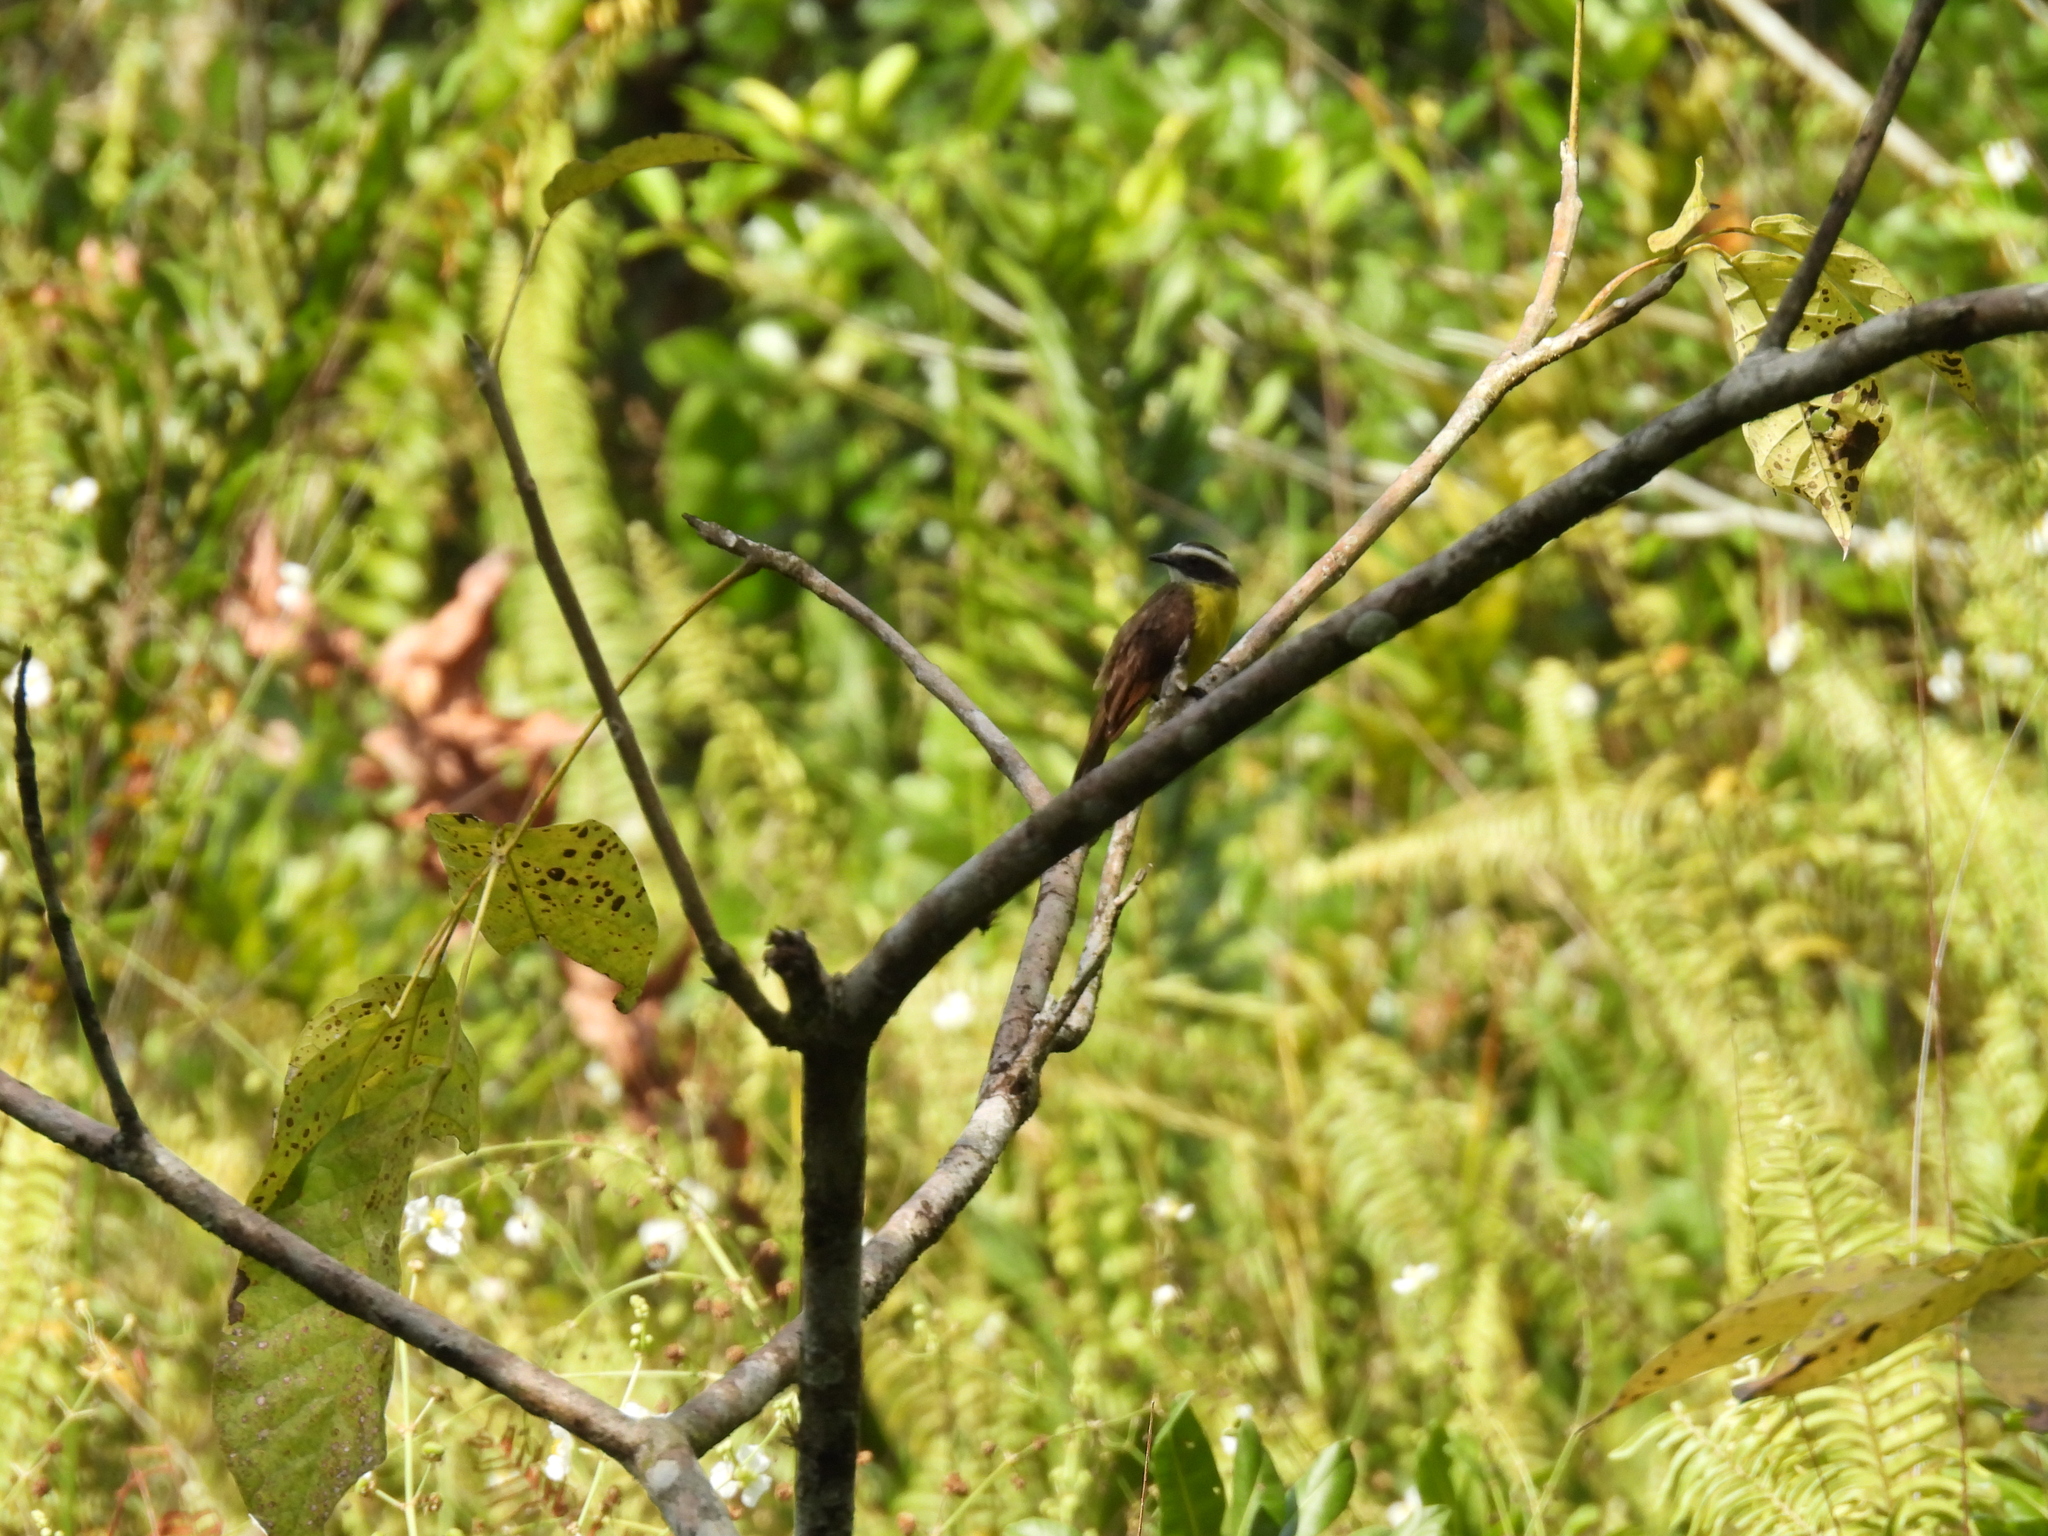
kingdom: Animalia
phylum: Chordata
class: Aves
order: Passeriformes
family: Tyrannidae
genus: Myiozetetes
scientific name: Myiozetetes cayanensis
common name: Rusty-margined flycatcher
